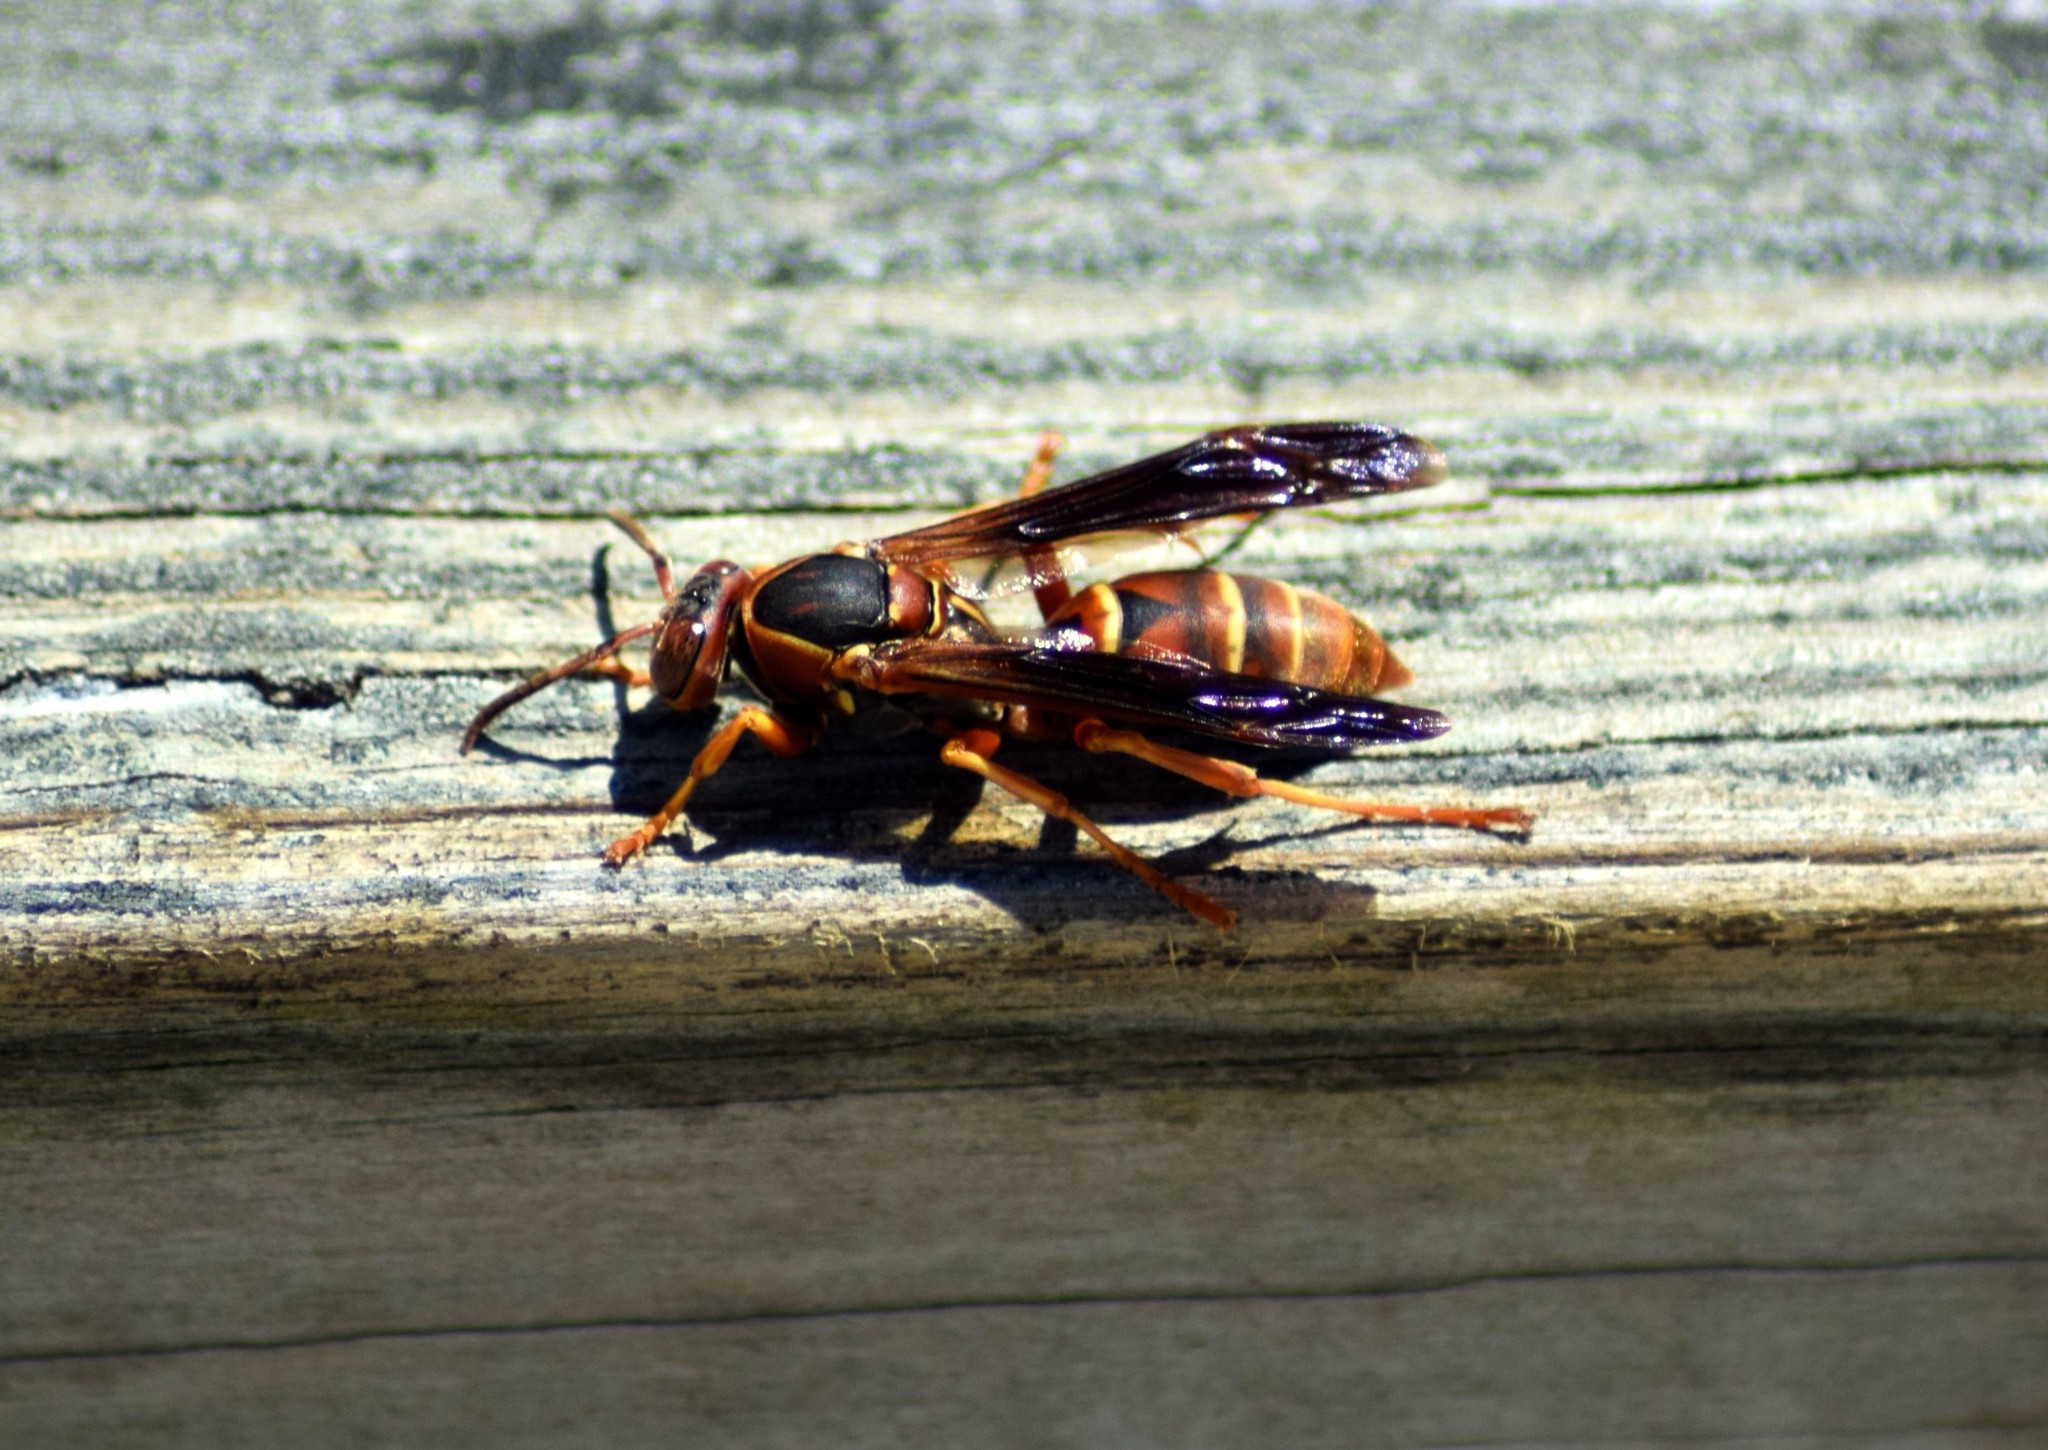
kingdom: Animalia
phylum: Arthropoda
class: Insecta
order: Hymenoptera
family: Eumenidae
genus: Polistes
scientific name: Polistes fuscatus
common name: Dark paper wasp
